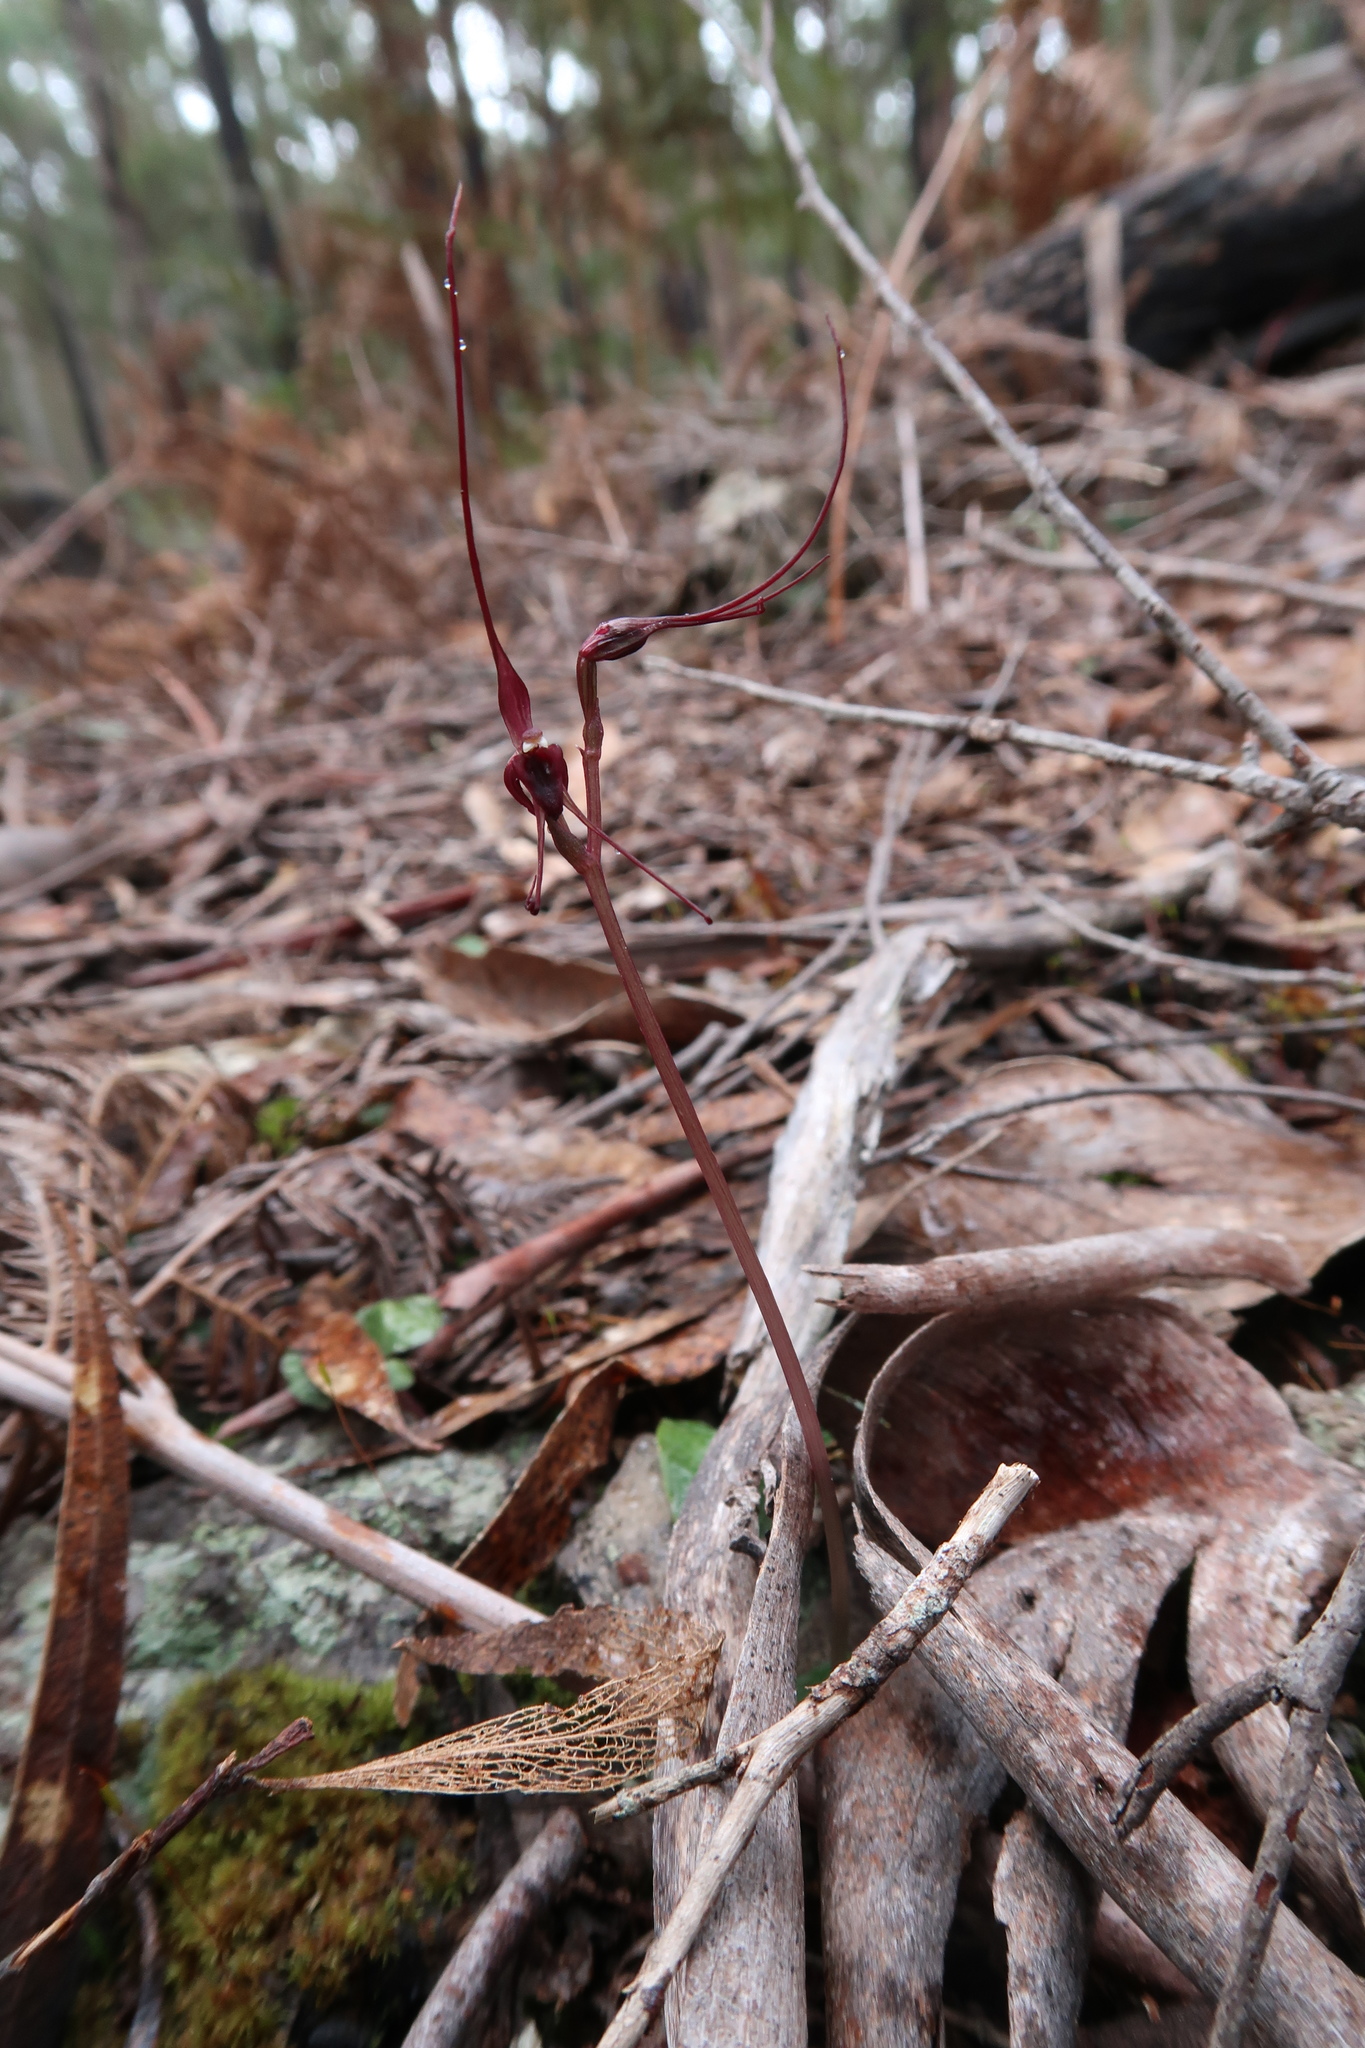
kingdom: Plantae
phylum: Tracheophyta
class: Liliopsida
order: Asparagales
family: Orchidaceae
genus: Acianthus
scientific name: Acianthus caudatus
